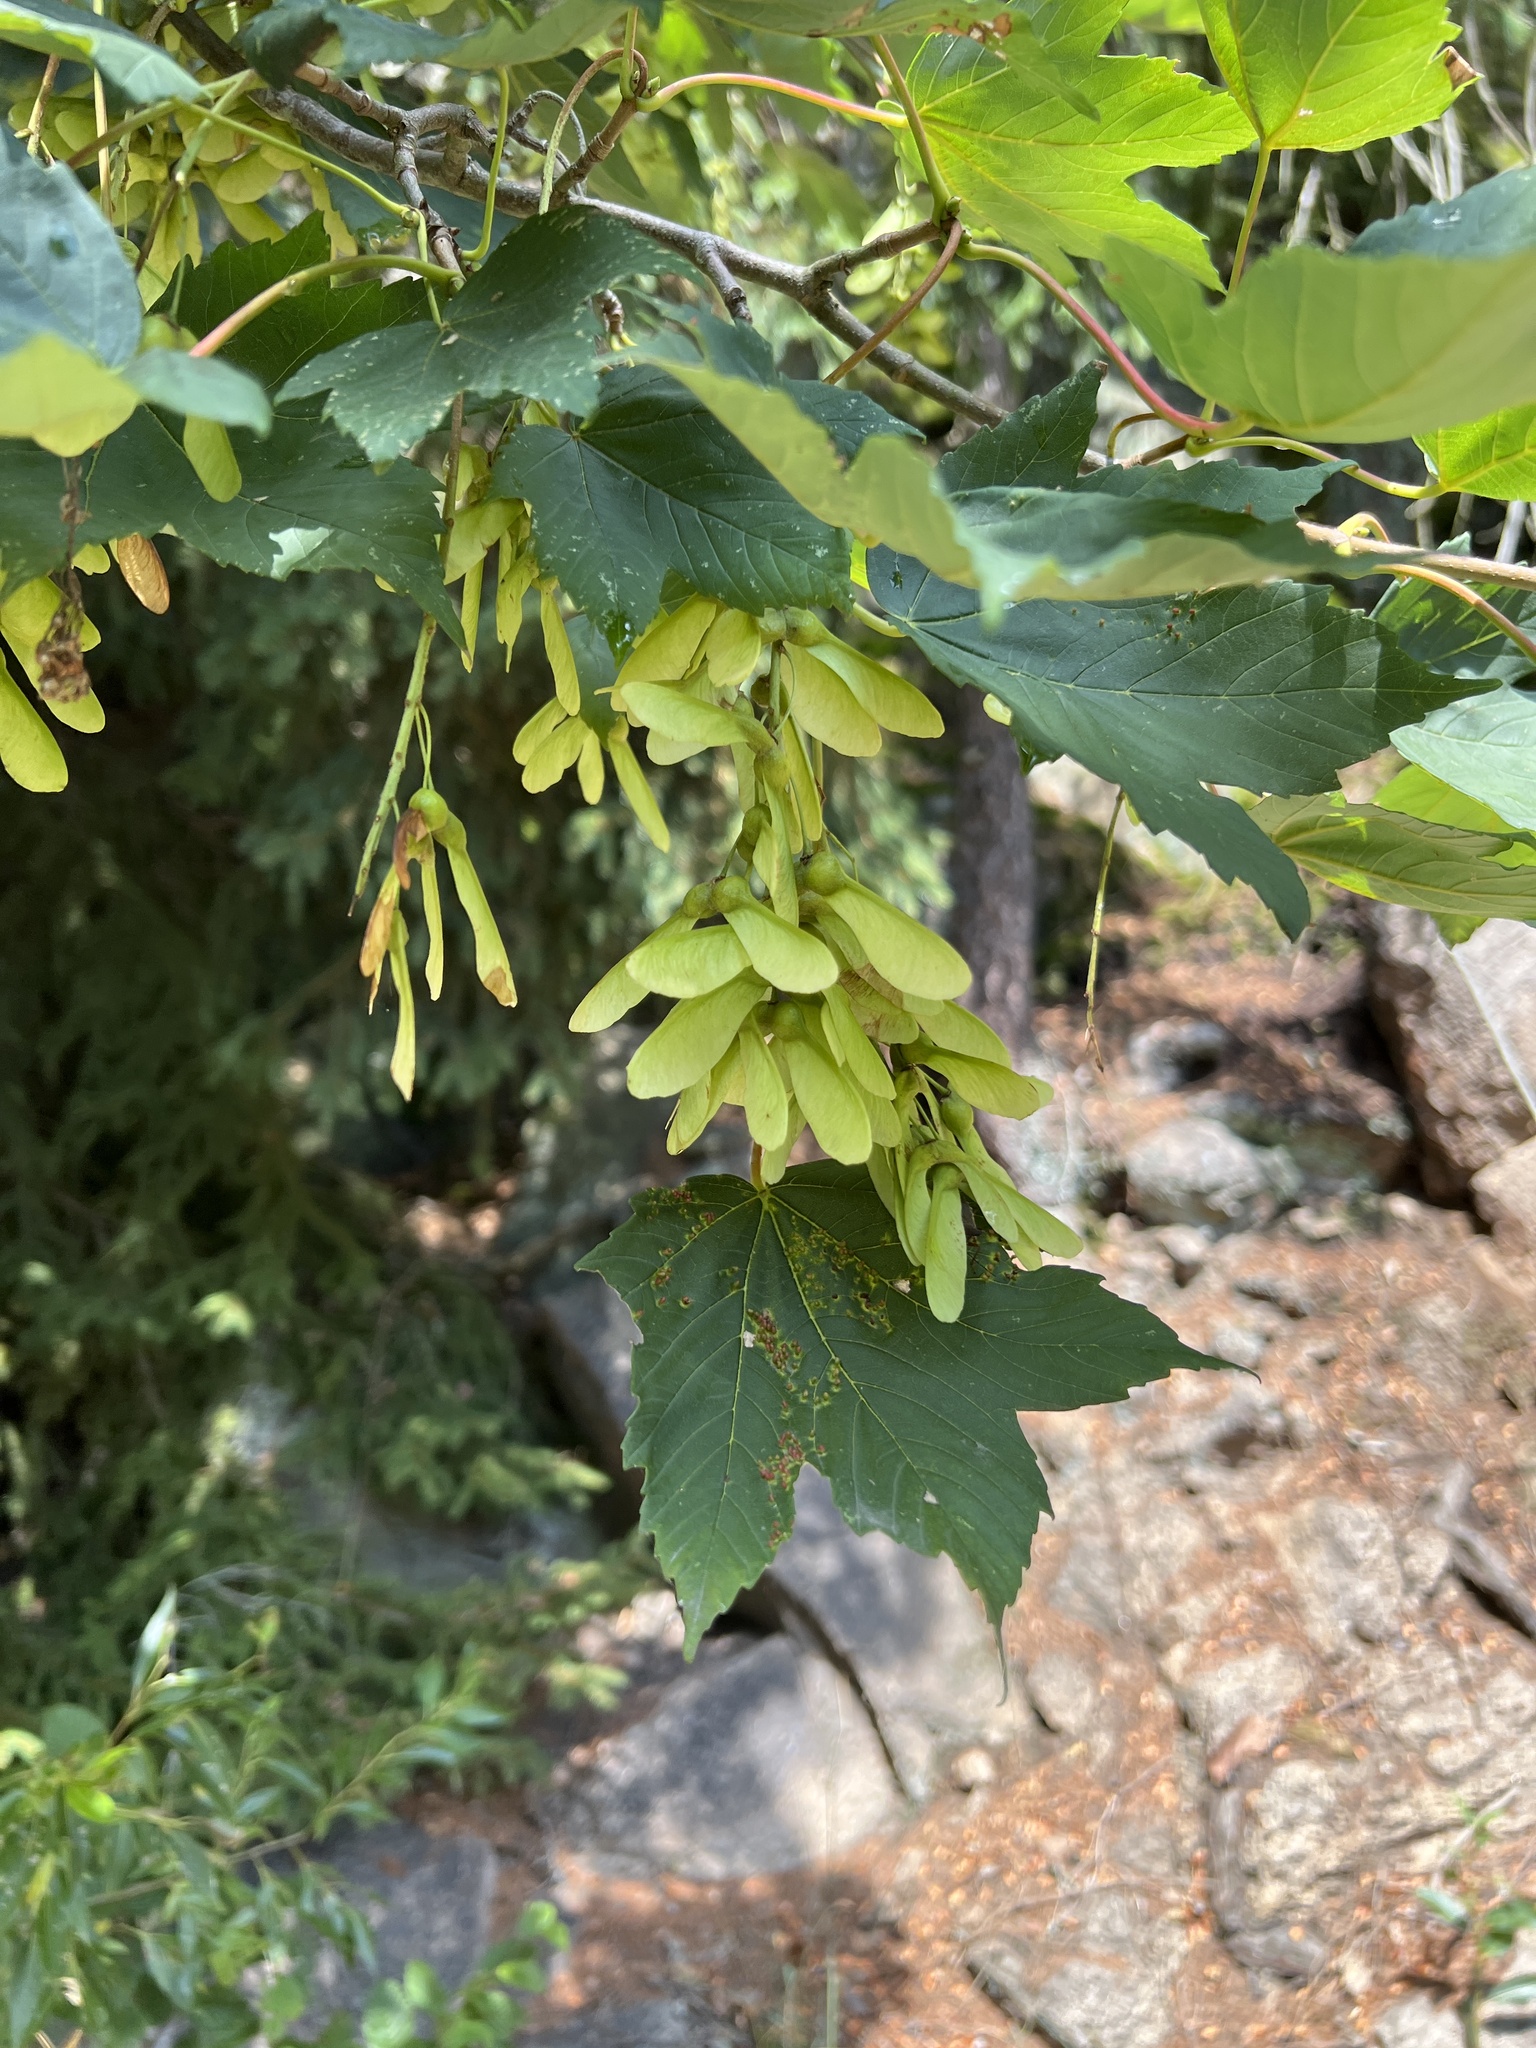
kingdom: Plantae
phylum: Tracheophyta
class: Magnoliopsida
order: Sapindales
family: Sapindaceae
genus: Acer
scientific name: Acer pseudoplatanus
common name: Sycamore
